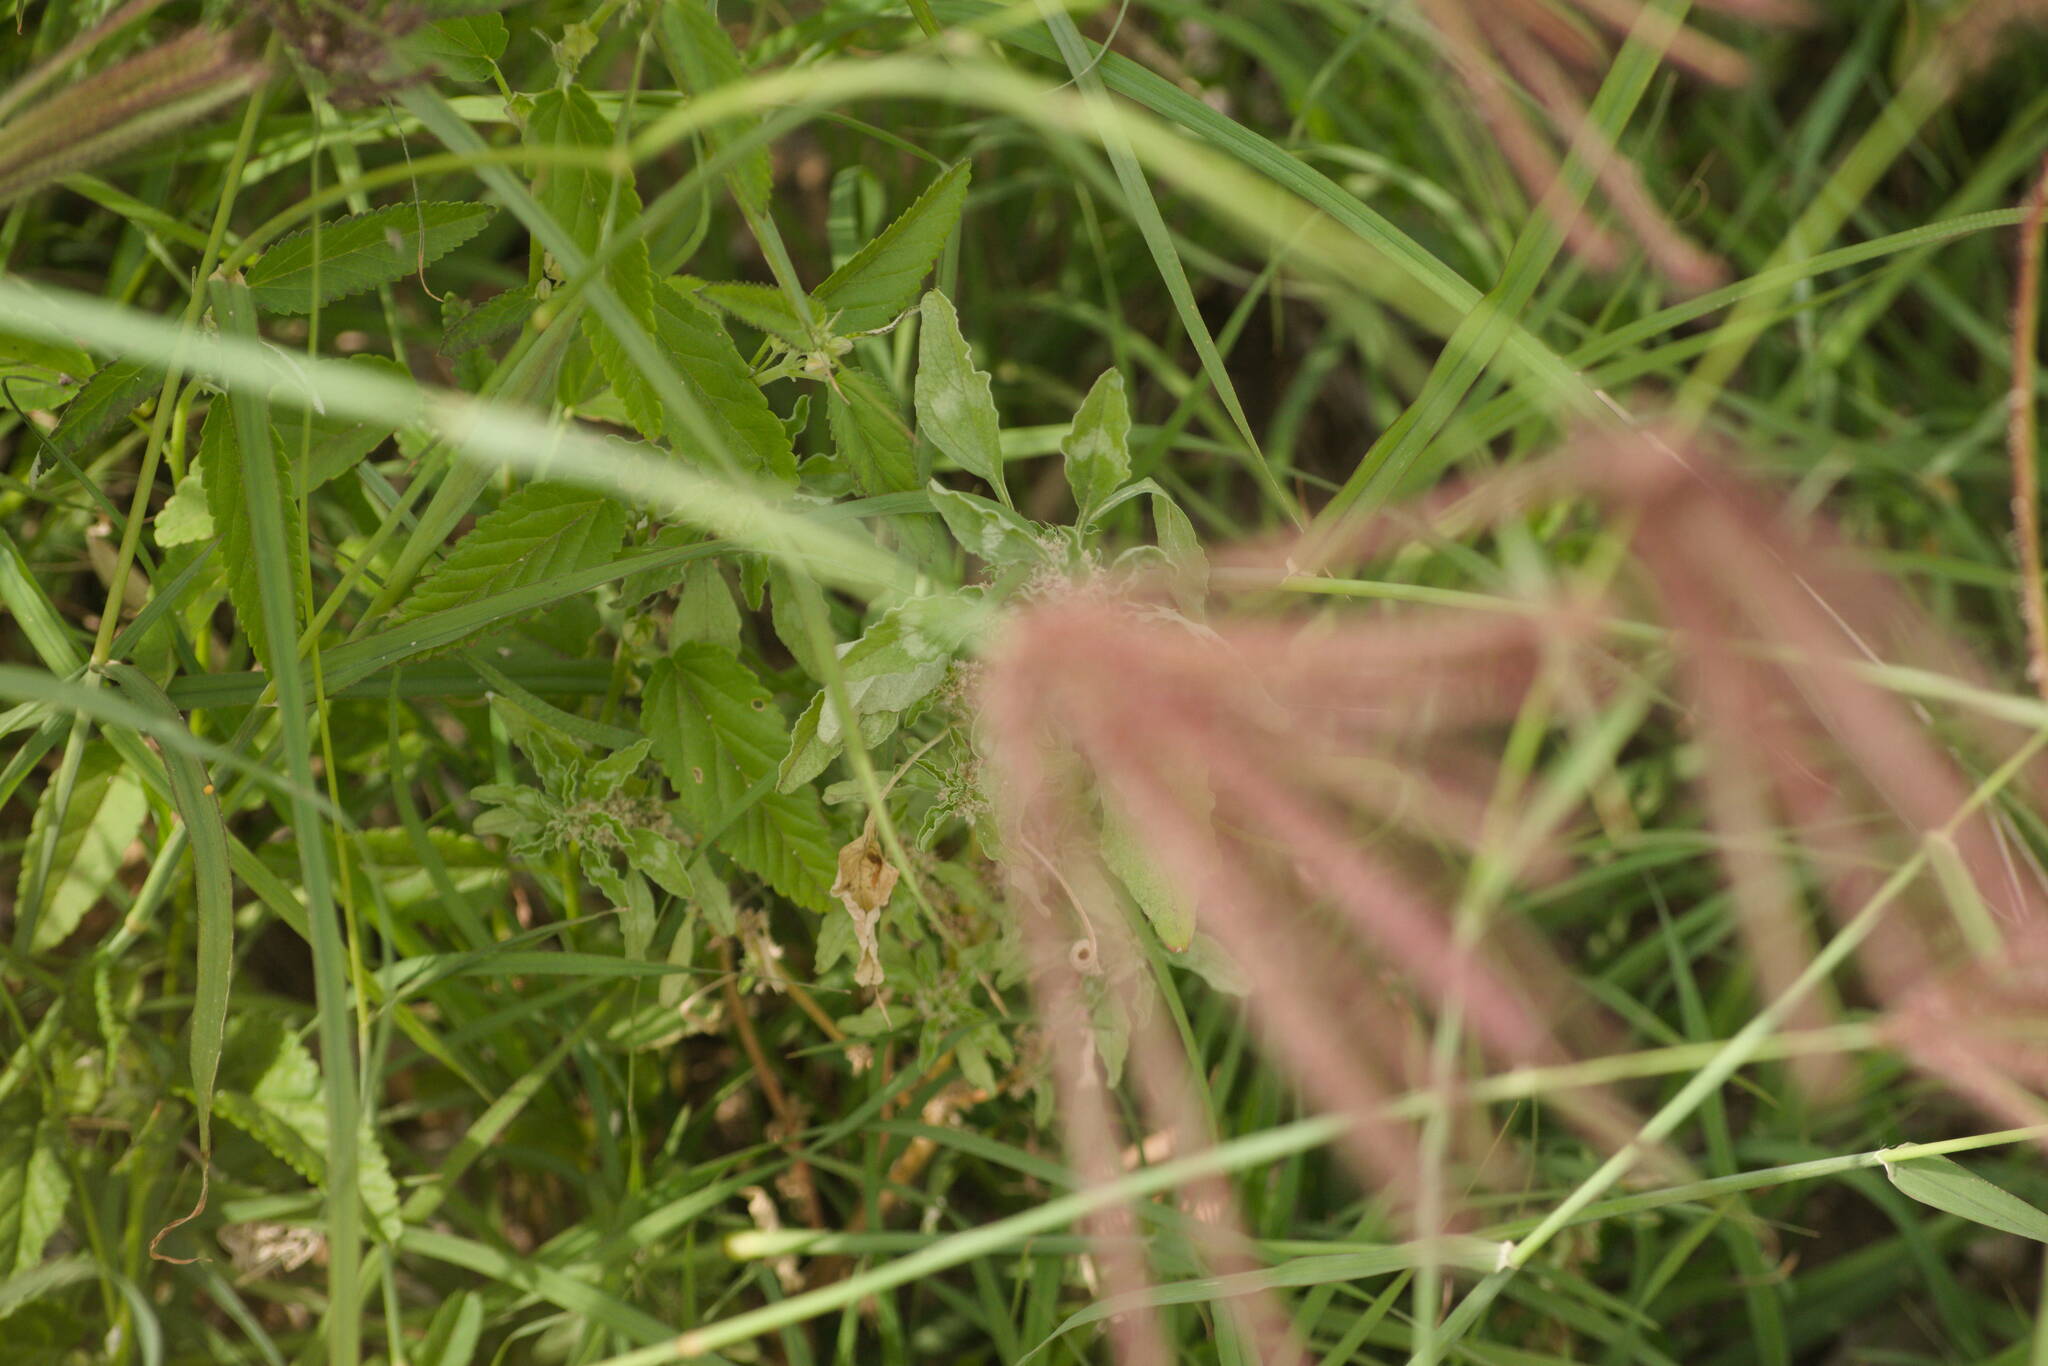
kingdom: Plantae
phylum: Tracheophyta
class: Magnoliopsida
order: Caryophyllales
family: Amaranthaceae
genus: Amaranthus
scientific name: Amaranthus polygonoides
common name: Tropical amaranth
